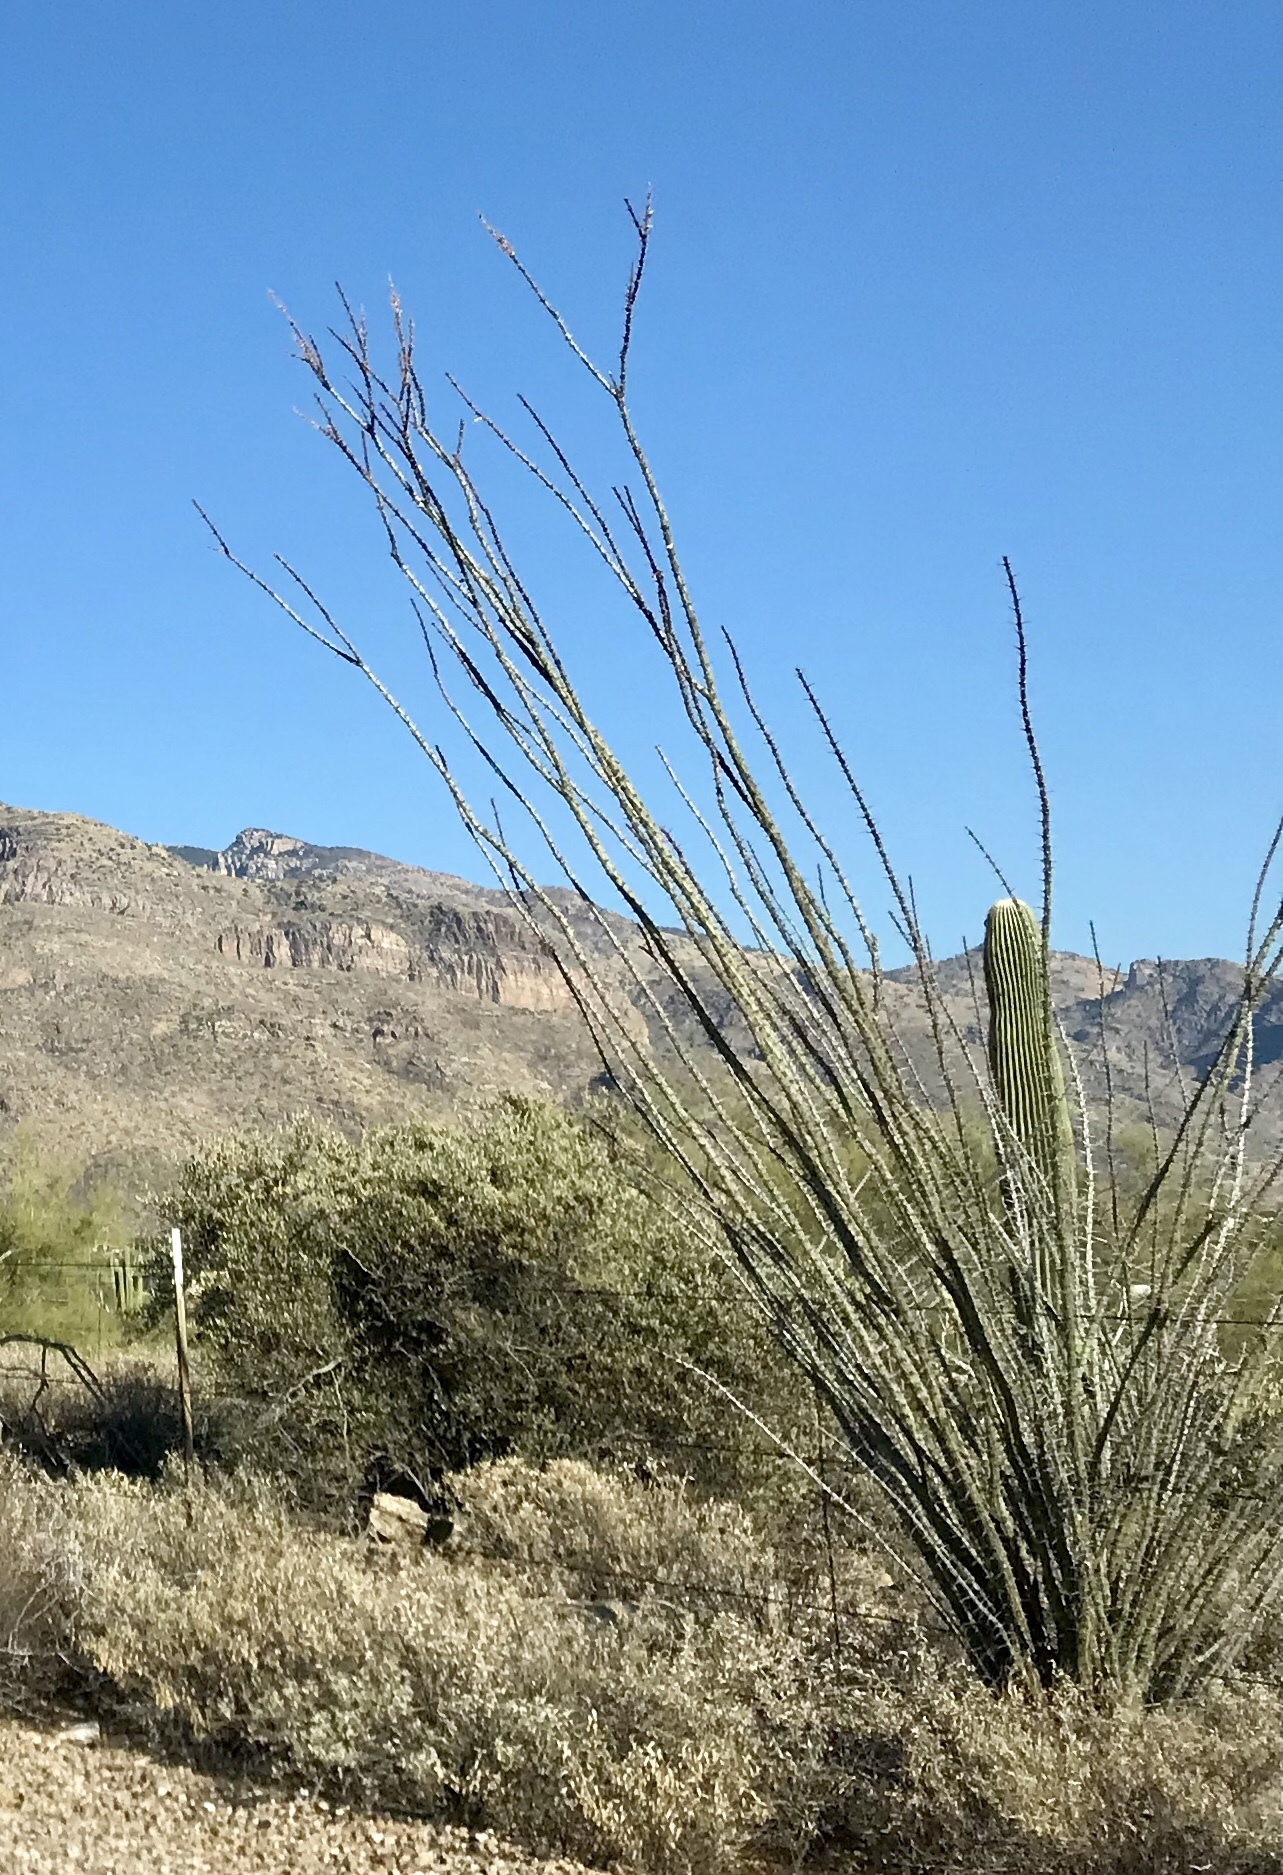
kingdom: Plantae
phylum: Tracheophyta
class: Magnoliopsida
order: Ericales
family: Fouquieriaceae
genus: Fouquieria
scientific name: Fouquieria splendens
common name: Vine-cactus
